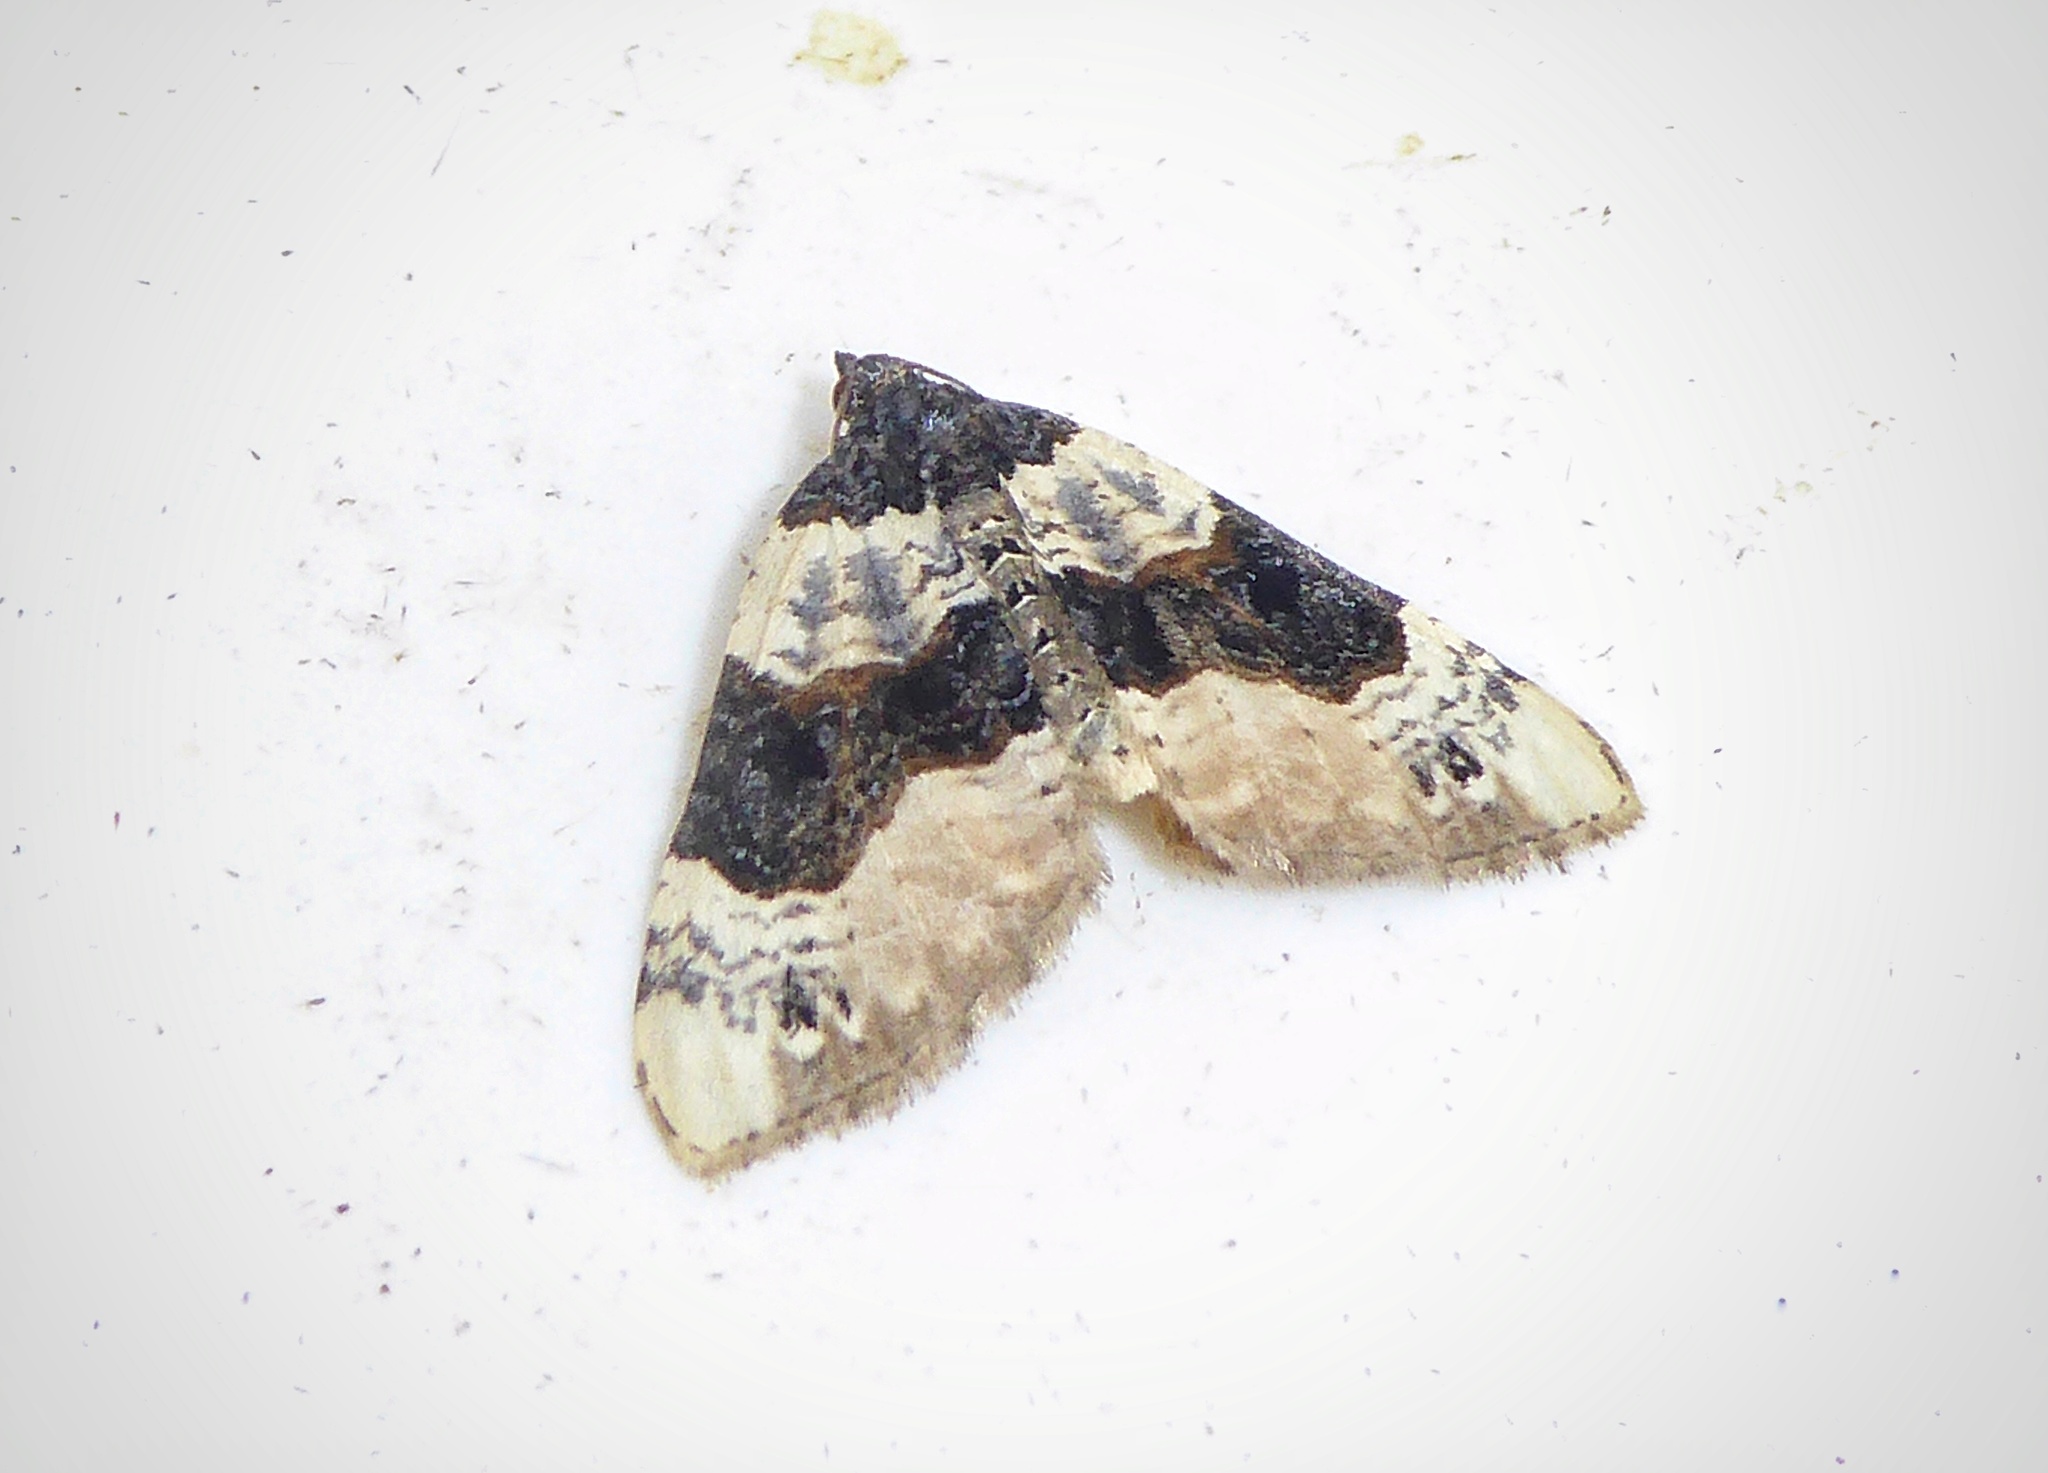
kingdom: Animalia
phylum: Arthropoda
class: Insecta
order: Lepidoptera
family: Geometridae
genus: Cosmorhoe
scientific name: Cosmorhoe ocellata
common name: Purple bar
